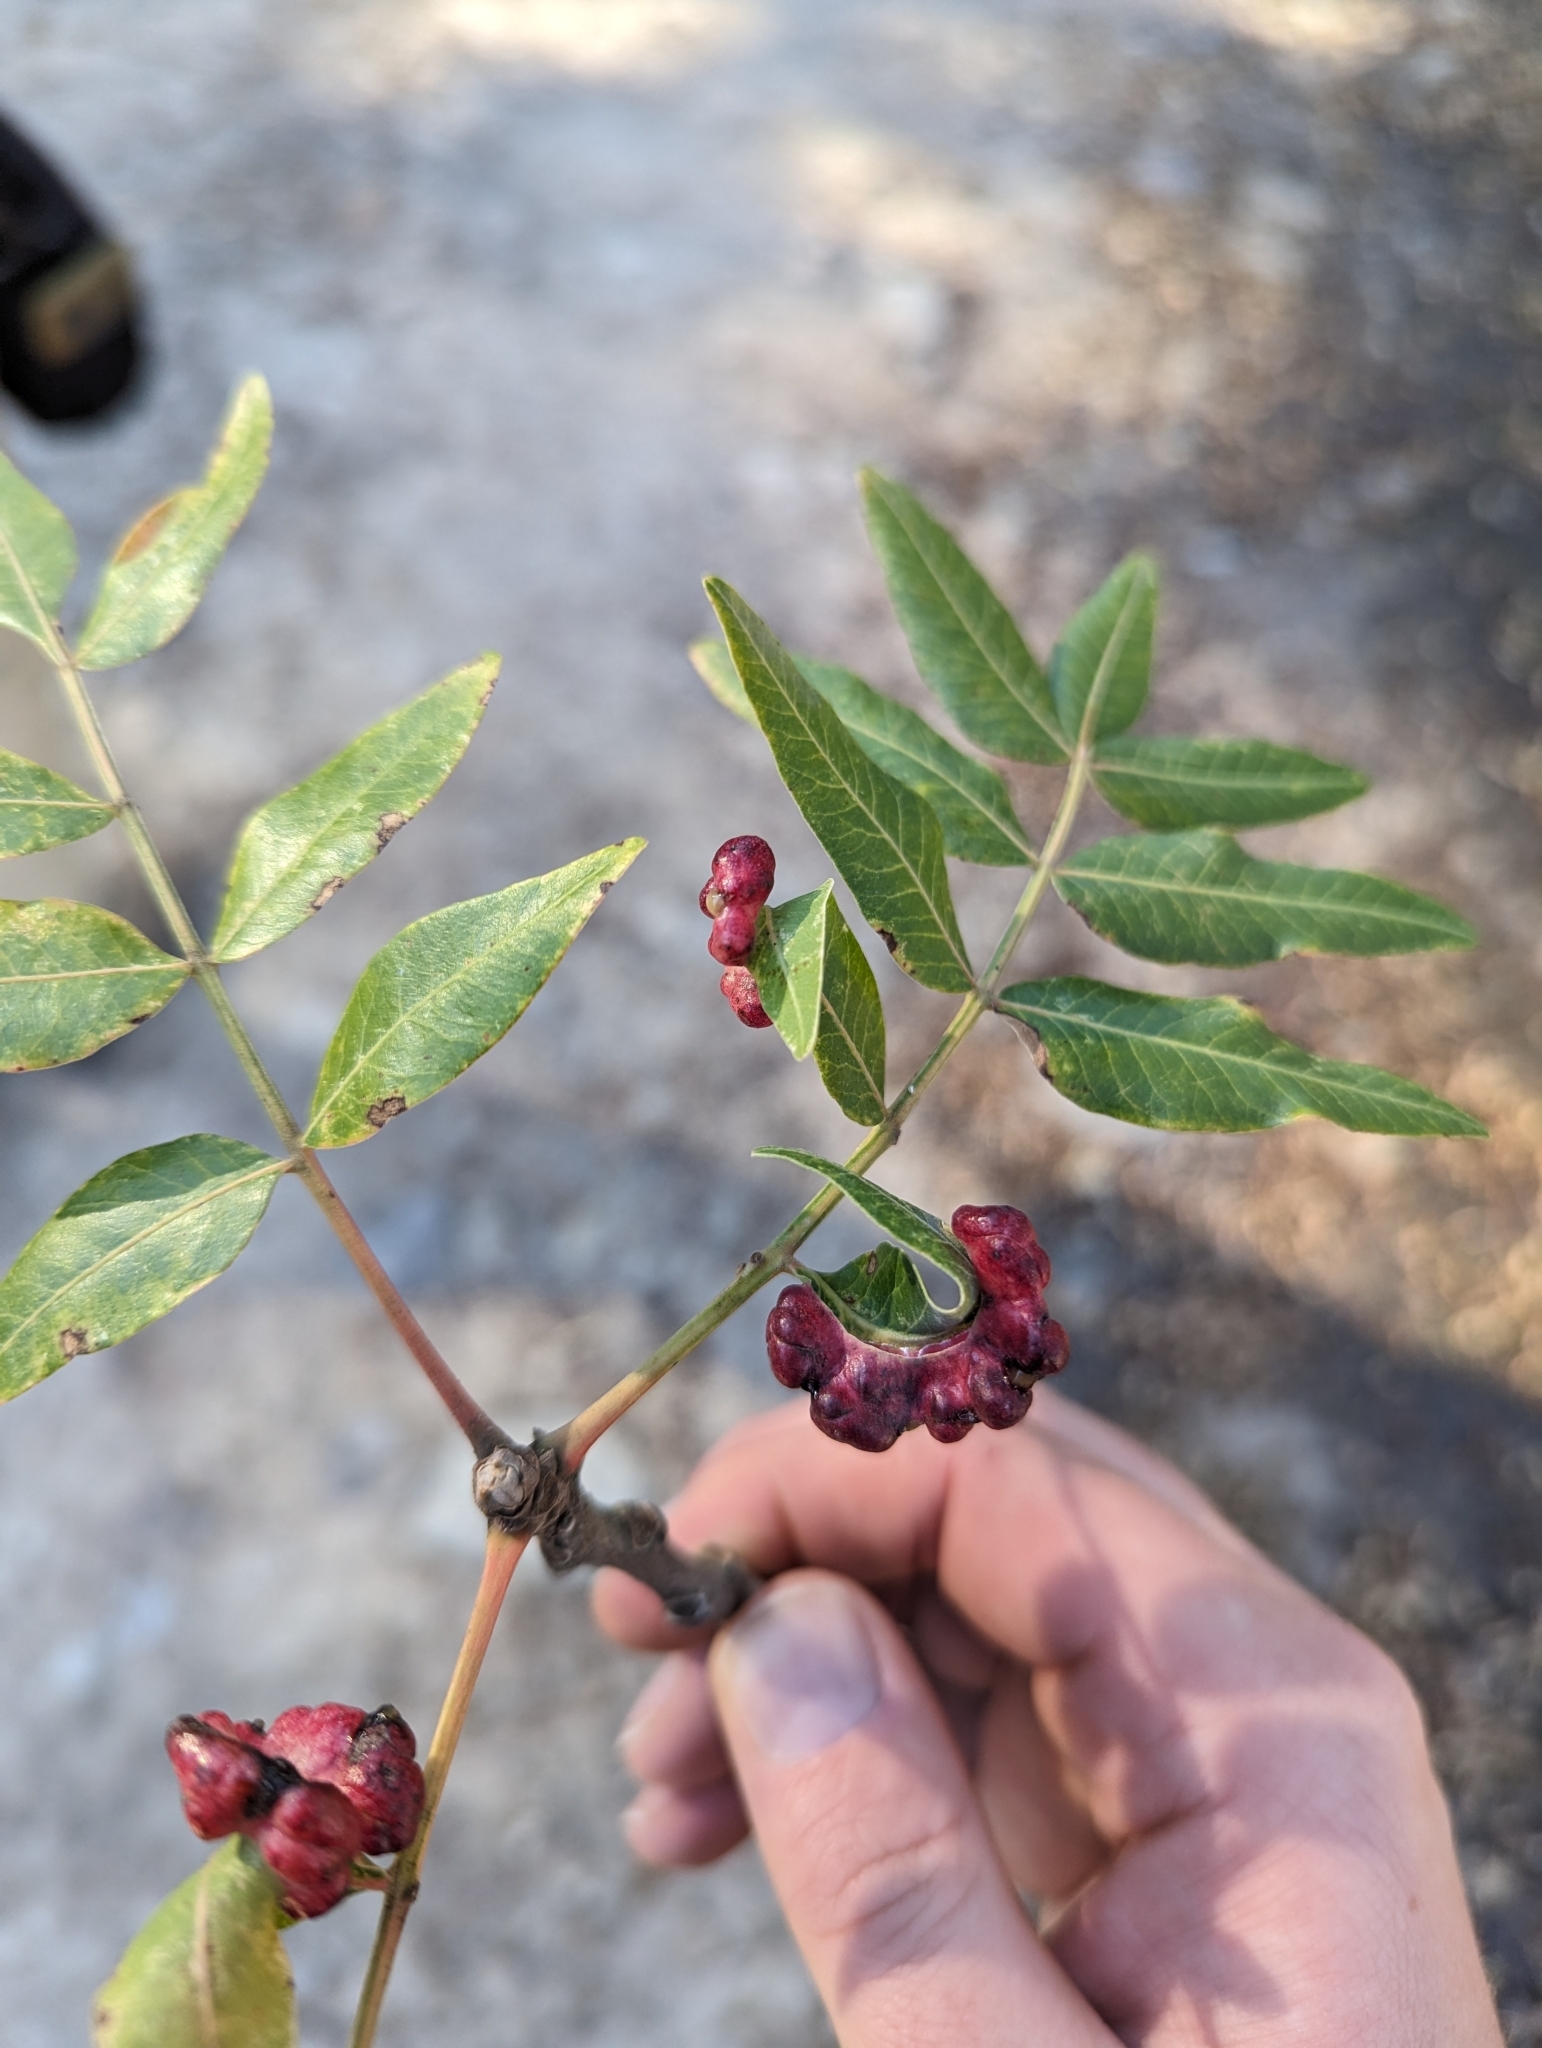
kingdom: Animalia
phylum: Arthropoda
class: Insecta
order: Hemiptera
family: Aphididae
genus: Forda
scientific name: Forda riccobonii
